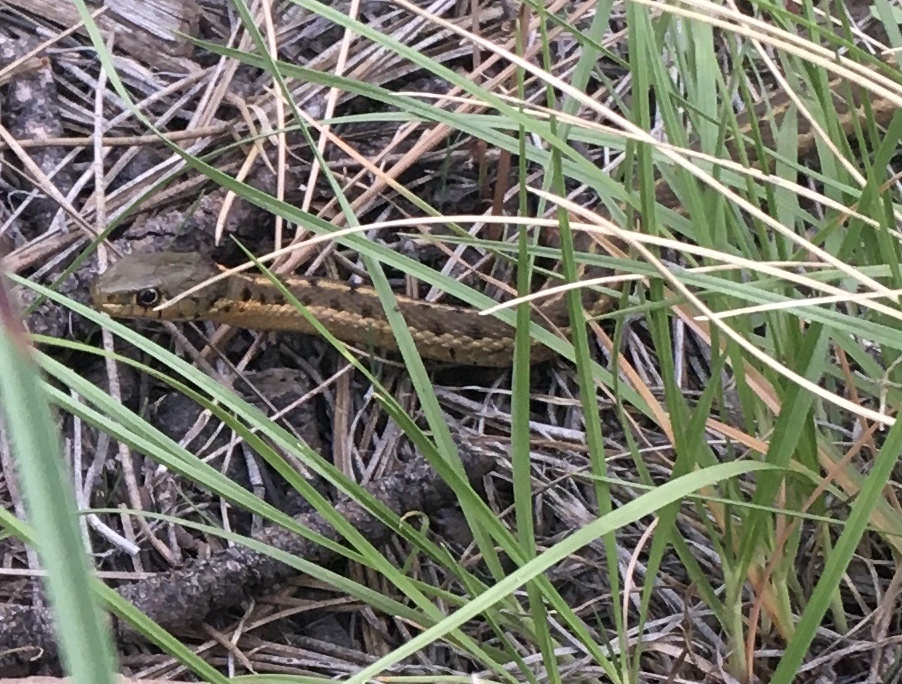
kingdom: Animalia
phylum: Chordata
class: Squamata
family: Colubridae
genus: Thamnophis
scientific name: Thamnophis elegans
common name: Western terrestrial garter snake
